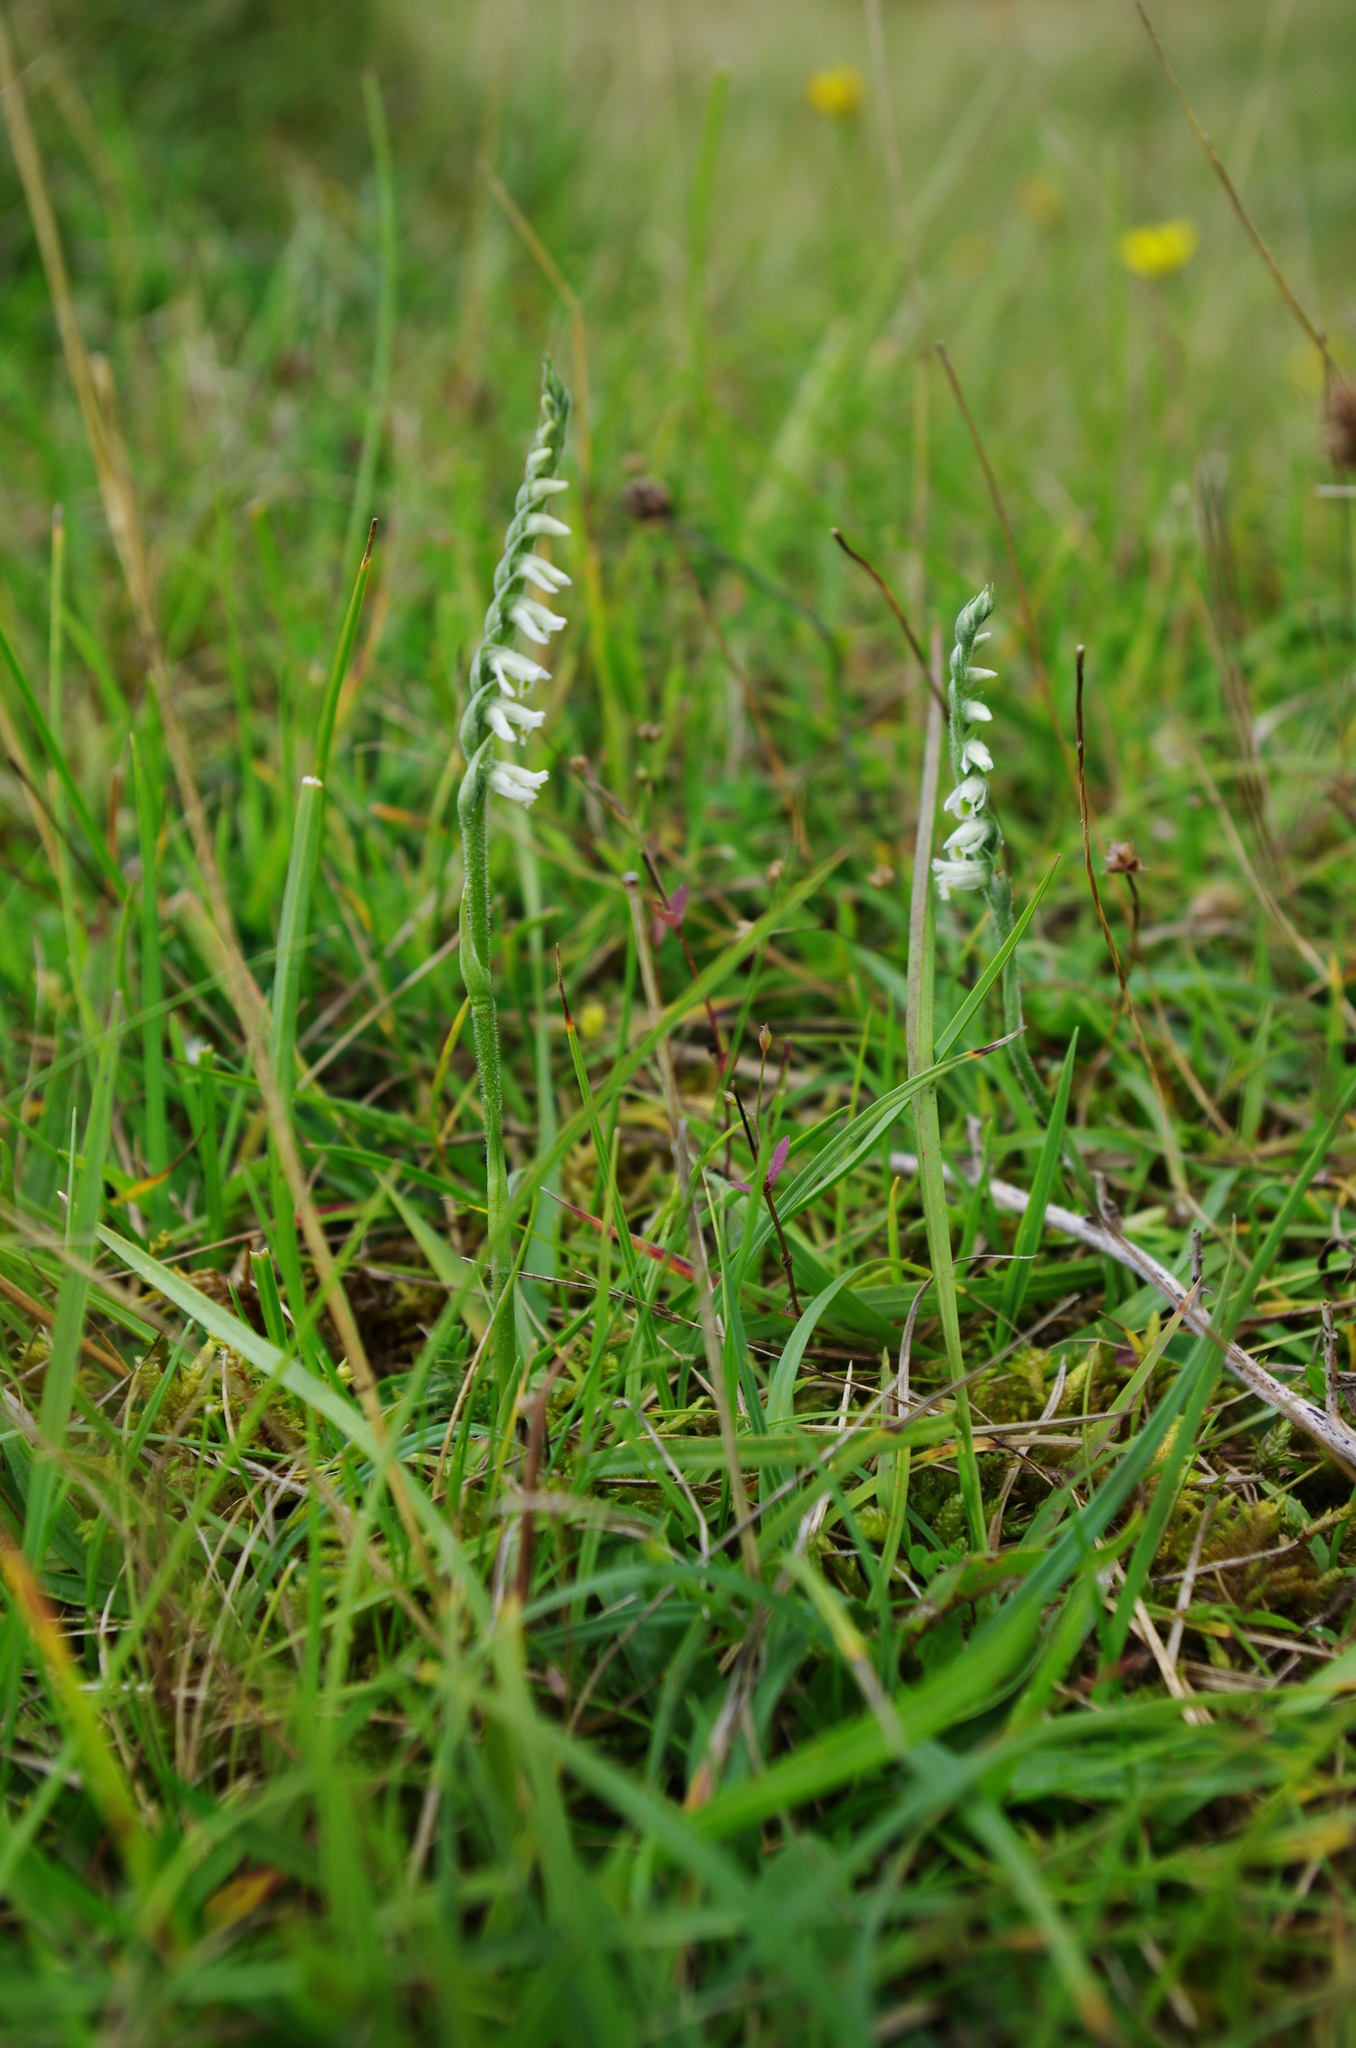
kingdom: Plantae
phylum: Tracheophyta
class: Liliopsida
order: Asparagales
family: Orchidaceae
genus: Spiranthes
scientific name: Spiranthes spiralis
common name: Autumn lady's-tresses
